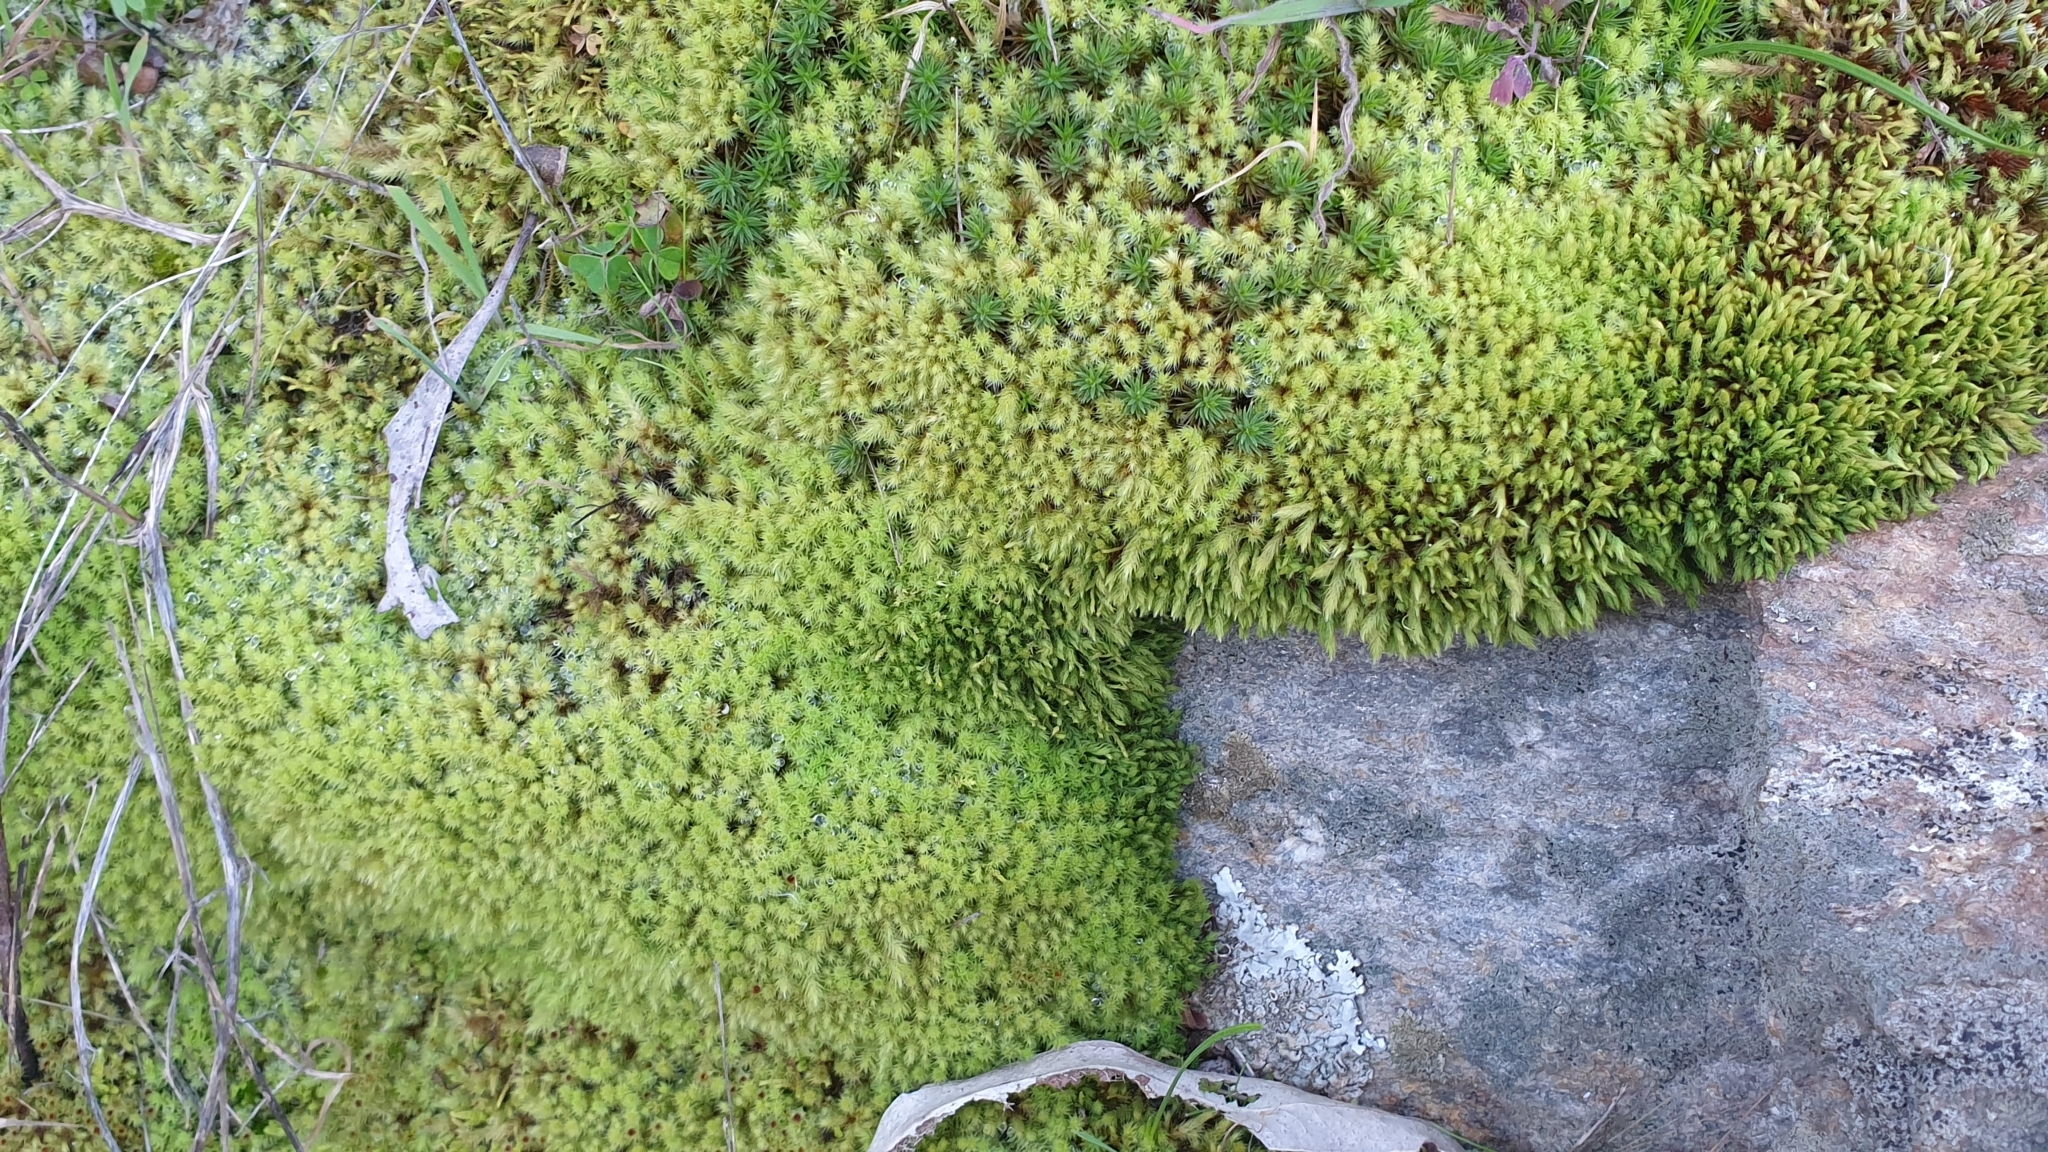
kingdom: Plantae
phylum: Bryophyta
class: Bryopsida
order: Bartramiales
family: Bartramiaceae
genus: Breutelia
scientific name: Breutelia affinis
